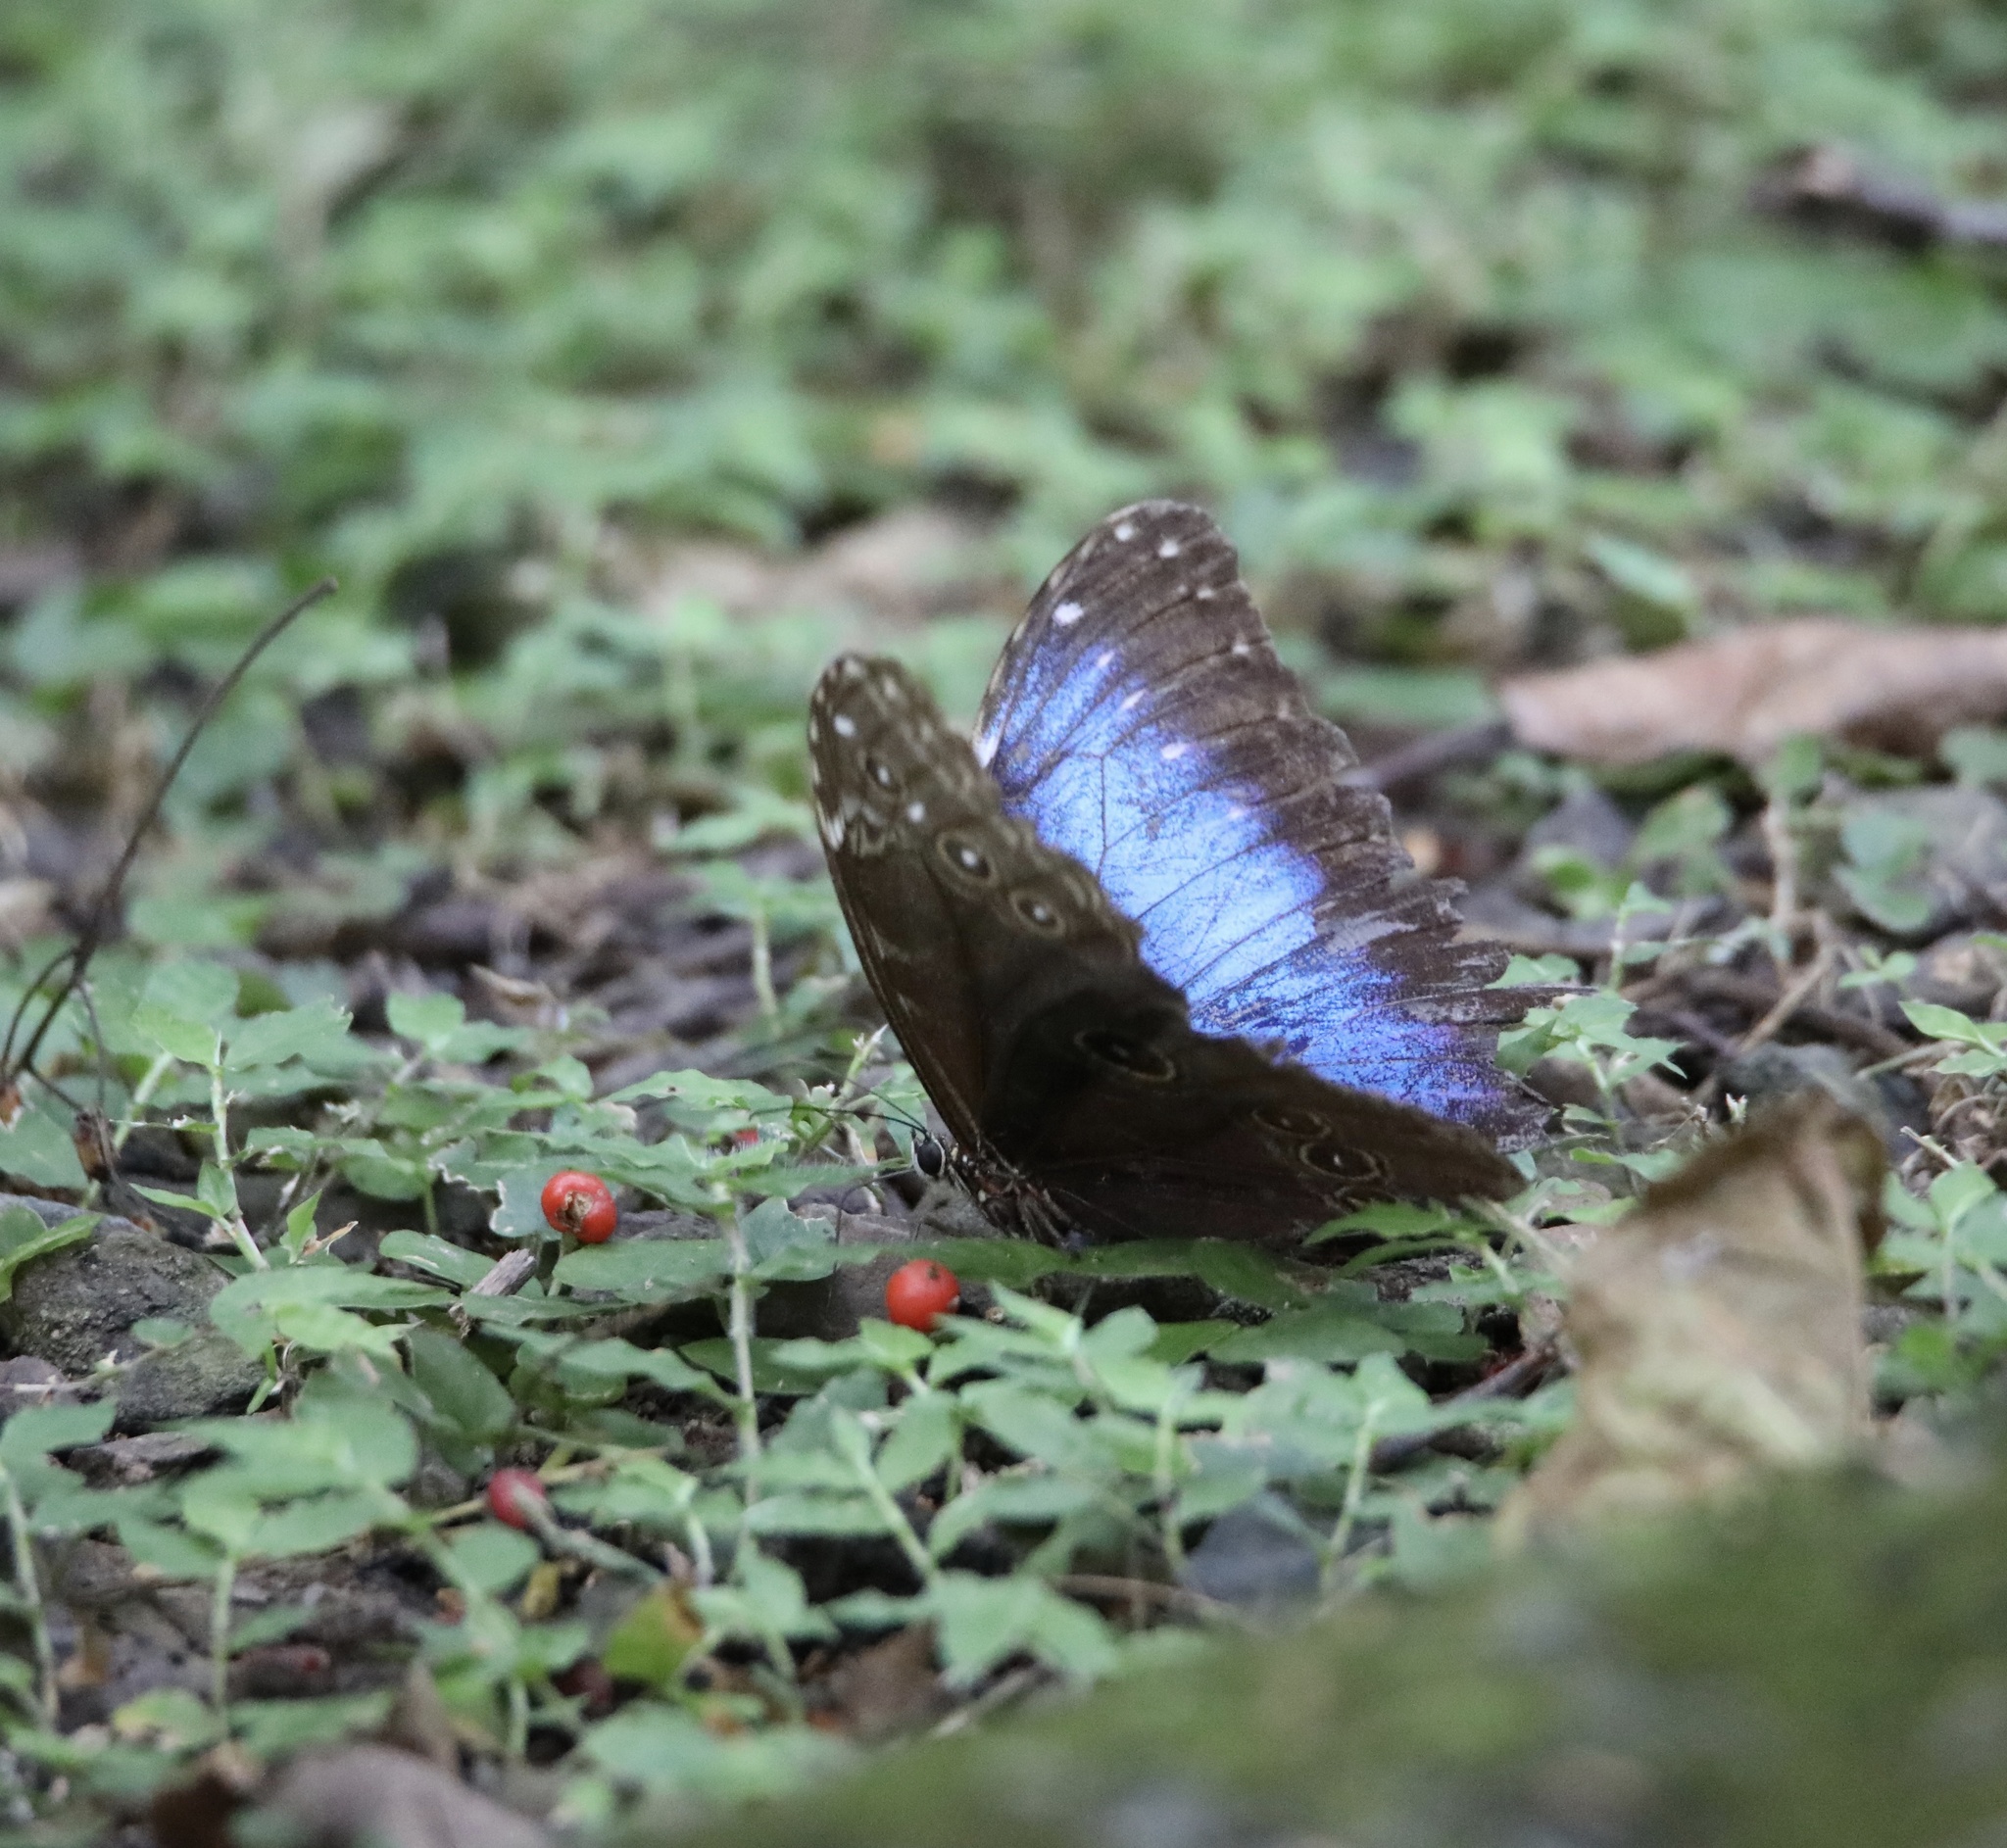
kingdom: Animalia
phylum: Arthropoda
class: Insecta
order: Lepidoptera
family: Nymphalidae
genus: Morpho
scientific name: Morpho helenor
